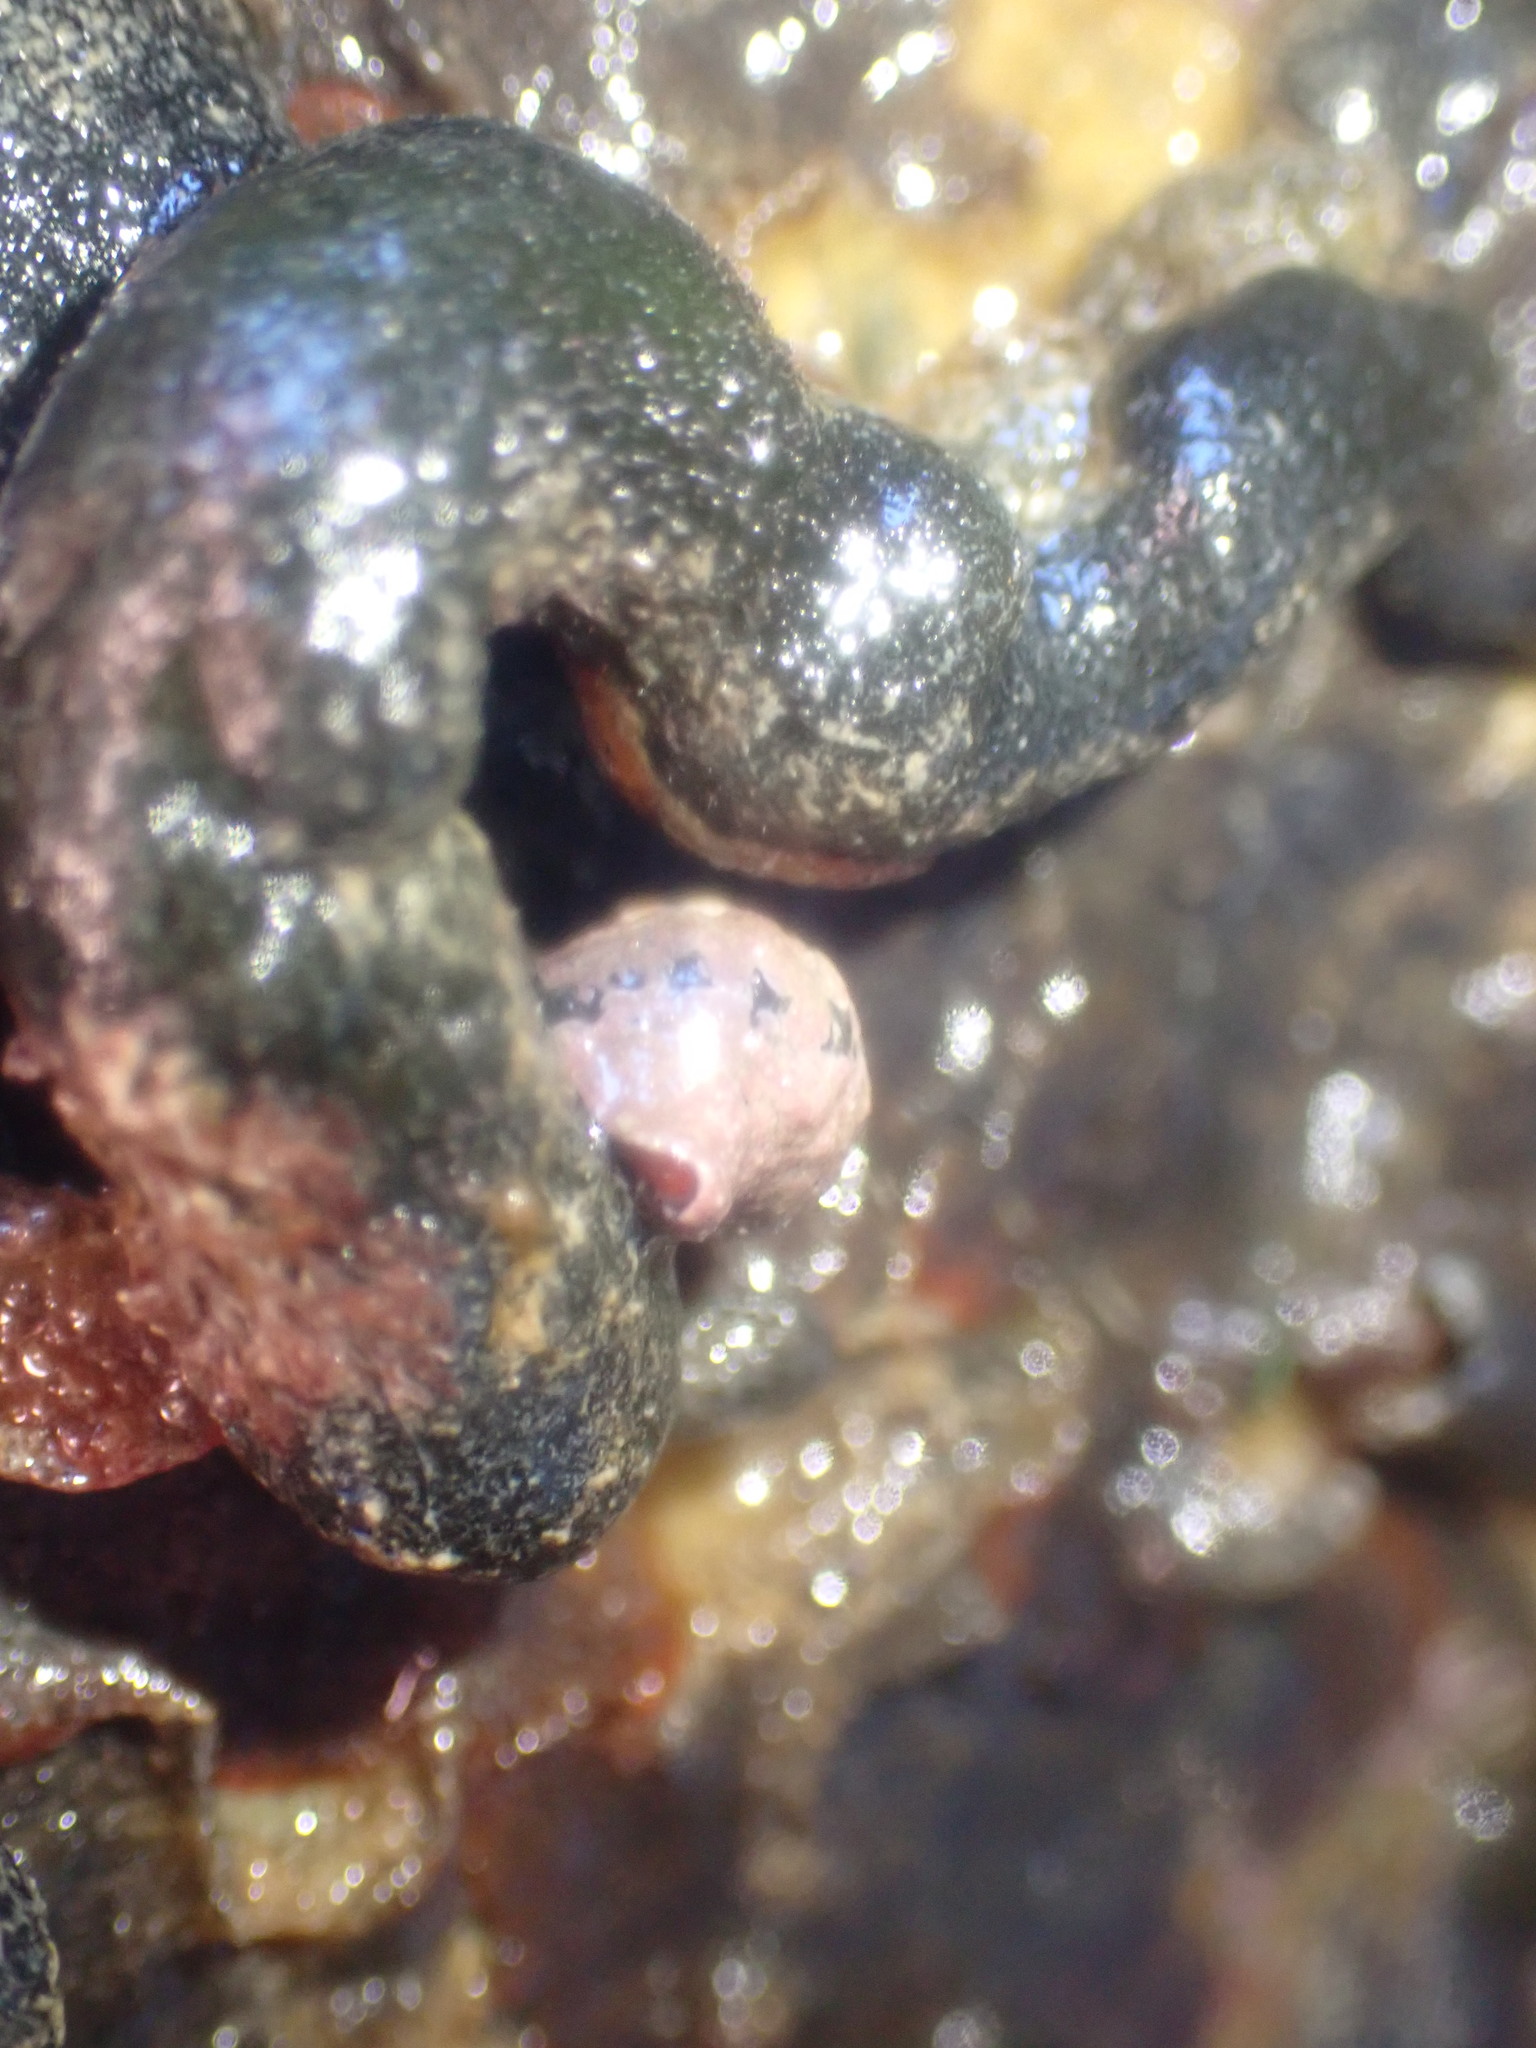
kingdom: Animalia
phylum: Mollusca
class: Gastropoda
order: Neogastropoda
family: Fasciolariidae
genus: Taron
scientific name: Taron dubius
